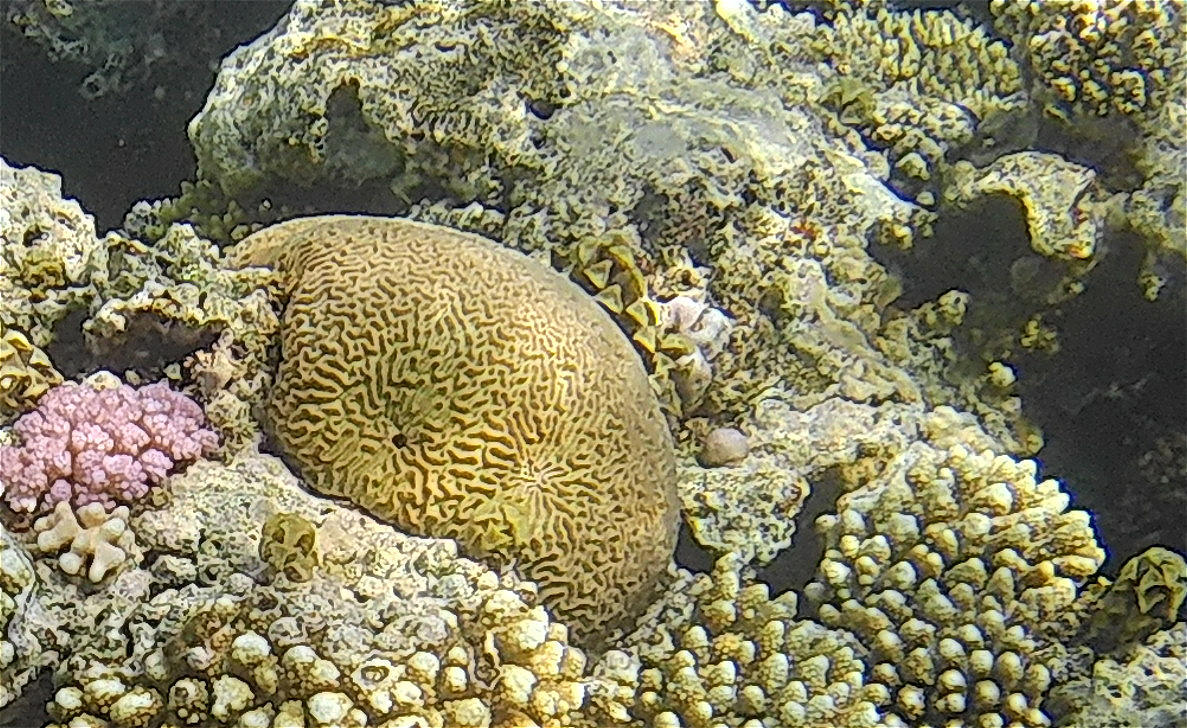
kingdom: Animalia
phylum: Cnidaria
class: Anthozoa
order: Scleractinia
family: Merulinidae
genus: Platygyra
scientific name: Platygyra daedalea
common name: Lesser valley coral
